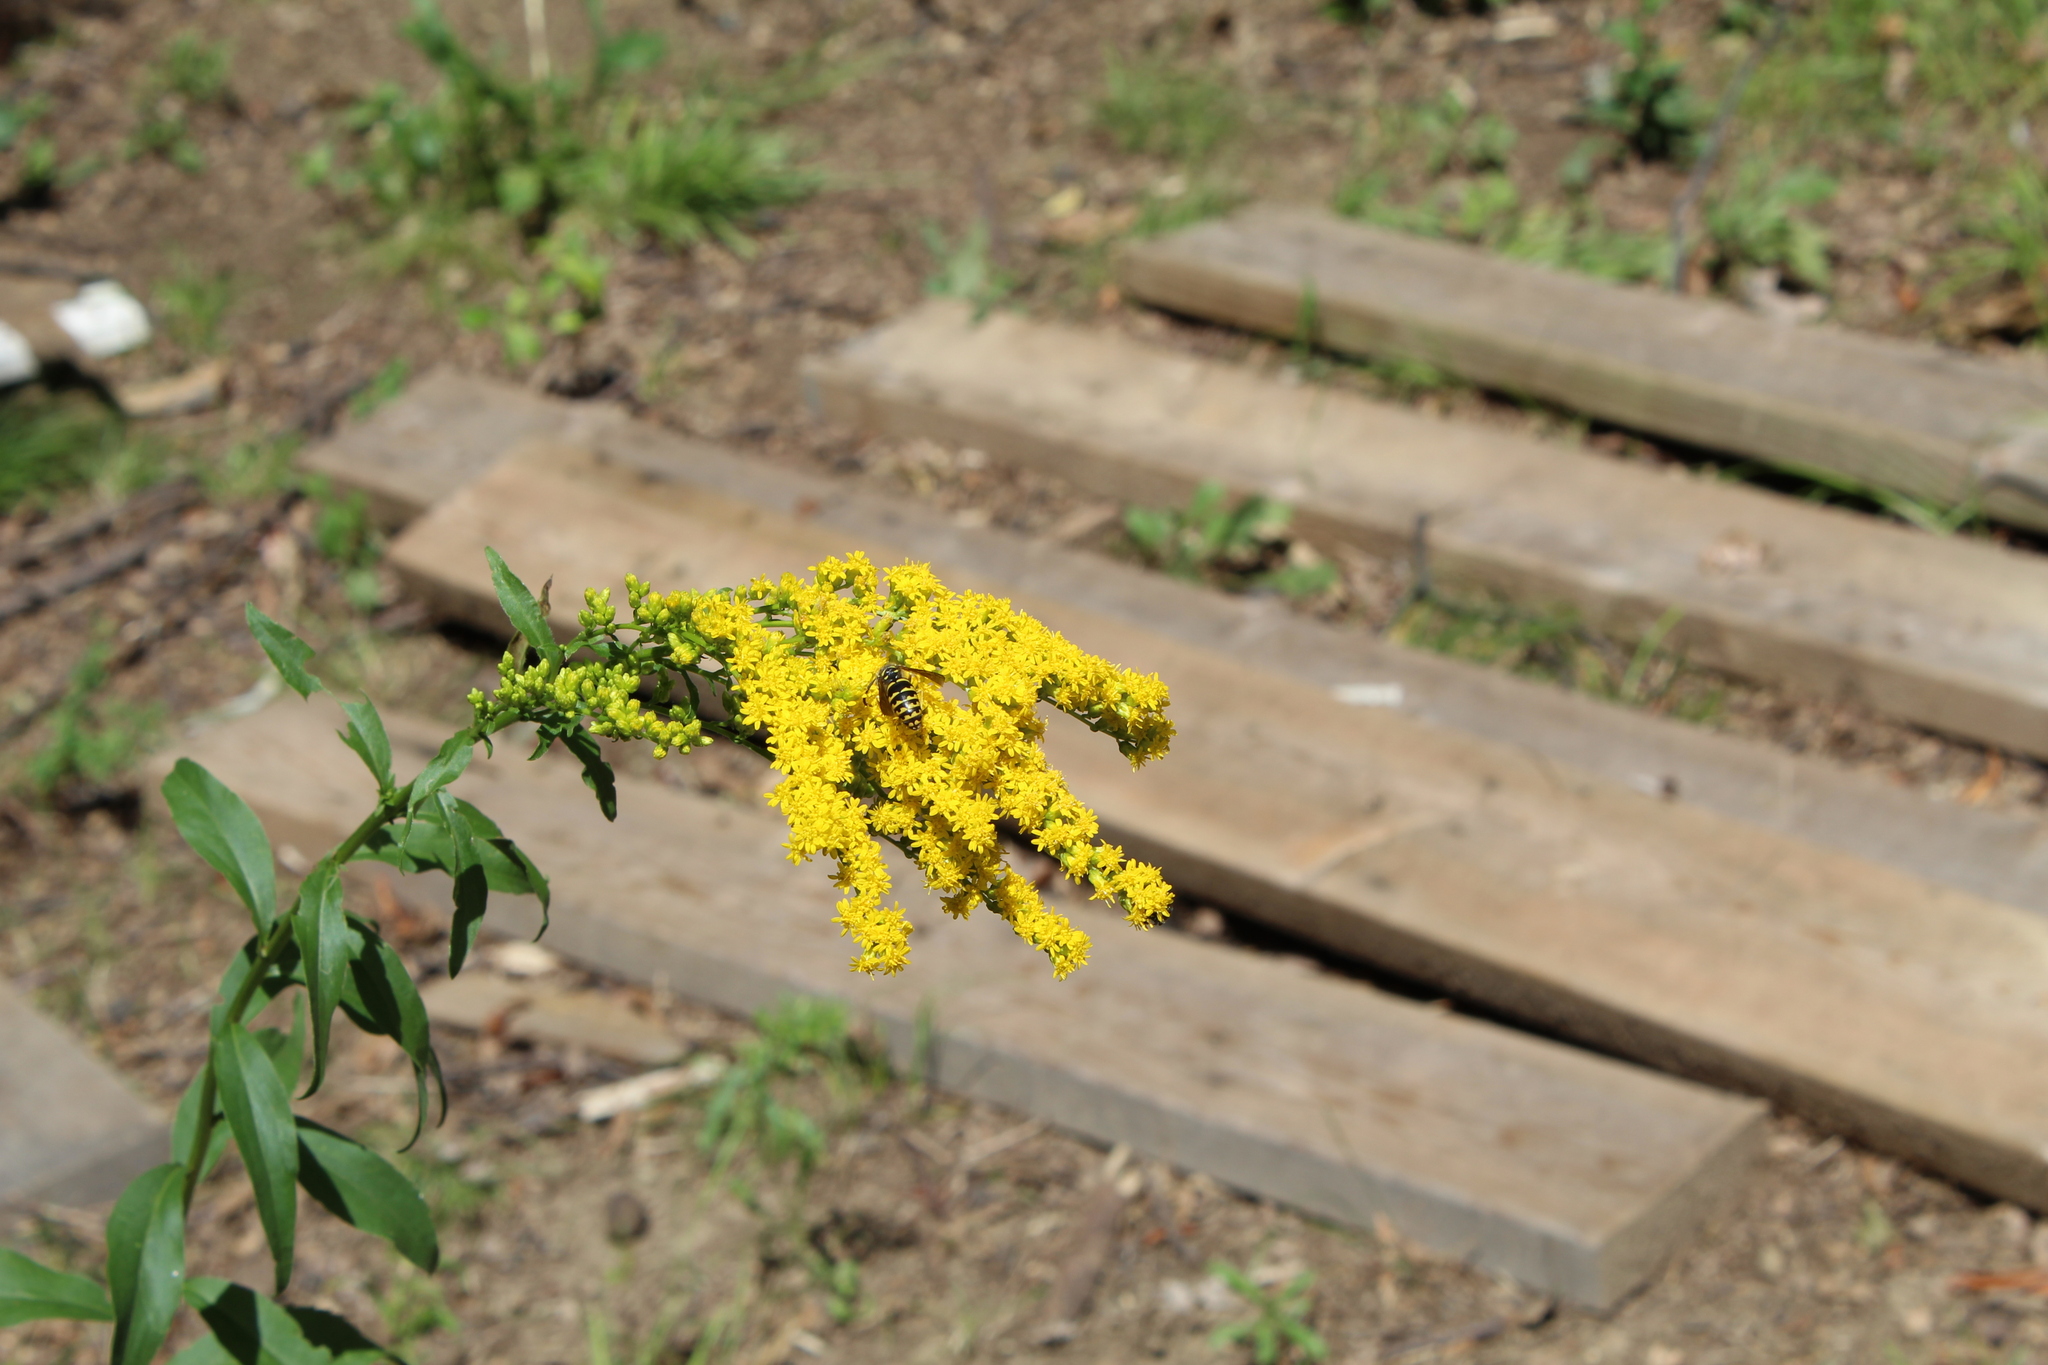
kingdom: Animalia
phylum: Arthropoda
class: Insecta
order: Hymenoptera
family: Vespidae
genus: Dolichovespula
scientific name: Dolichovespula arenaria
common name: Aerial yellowjacket
